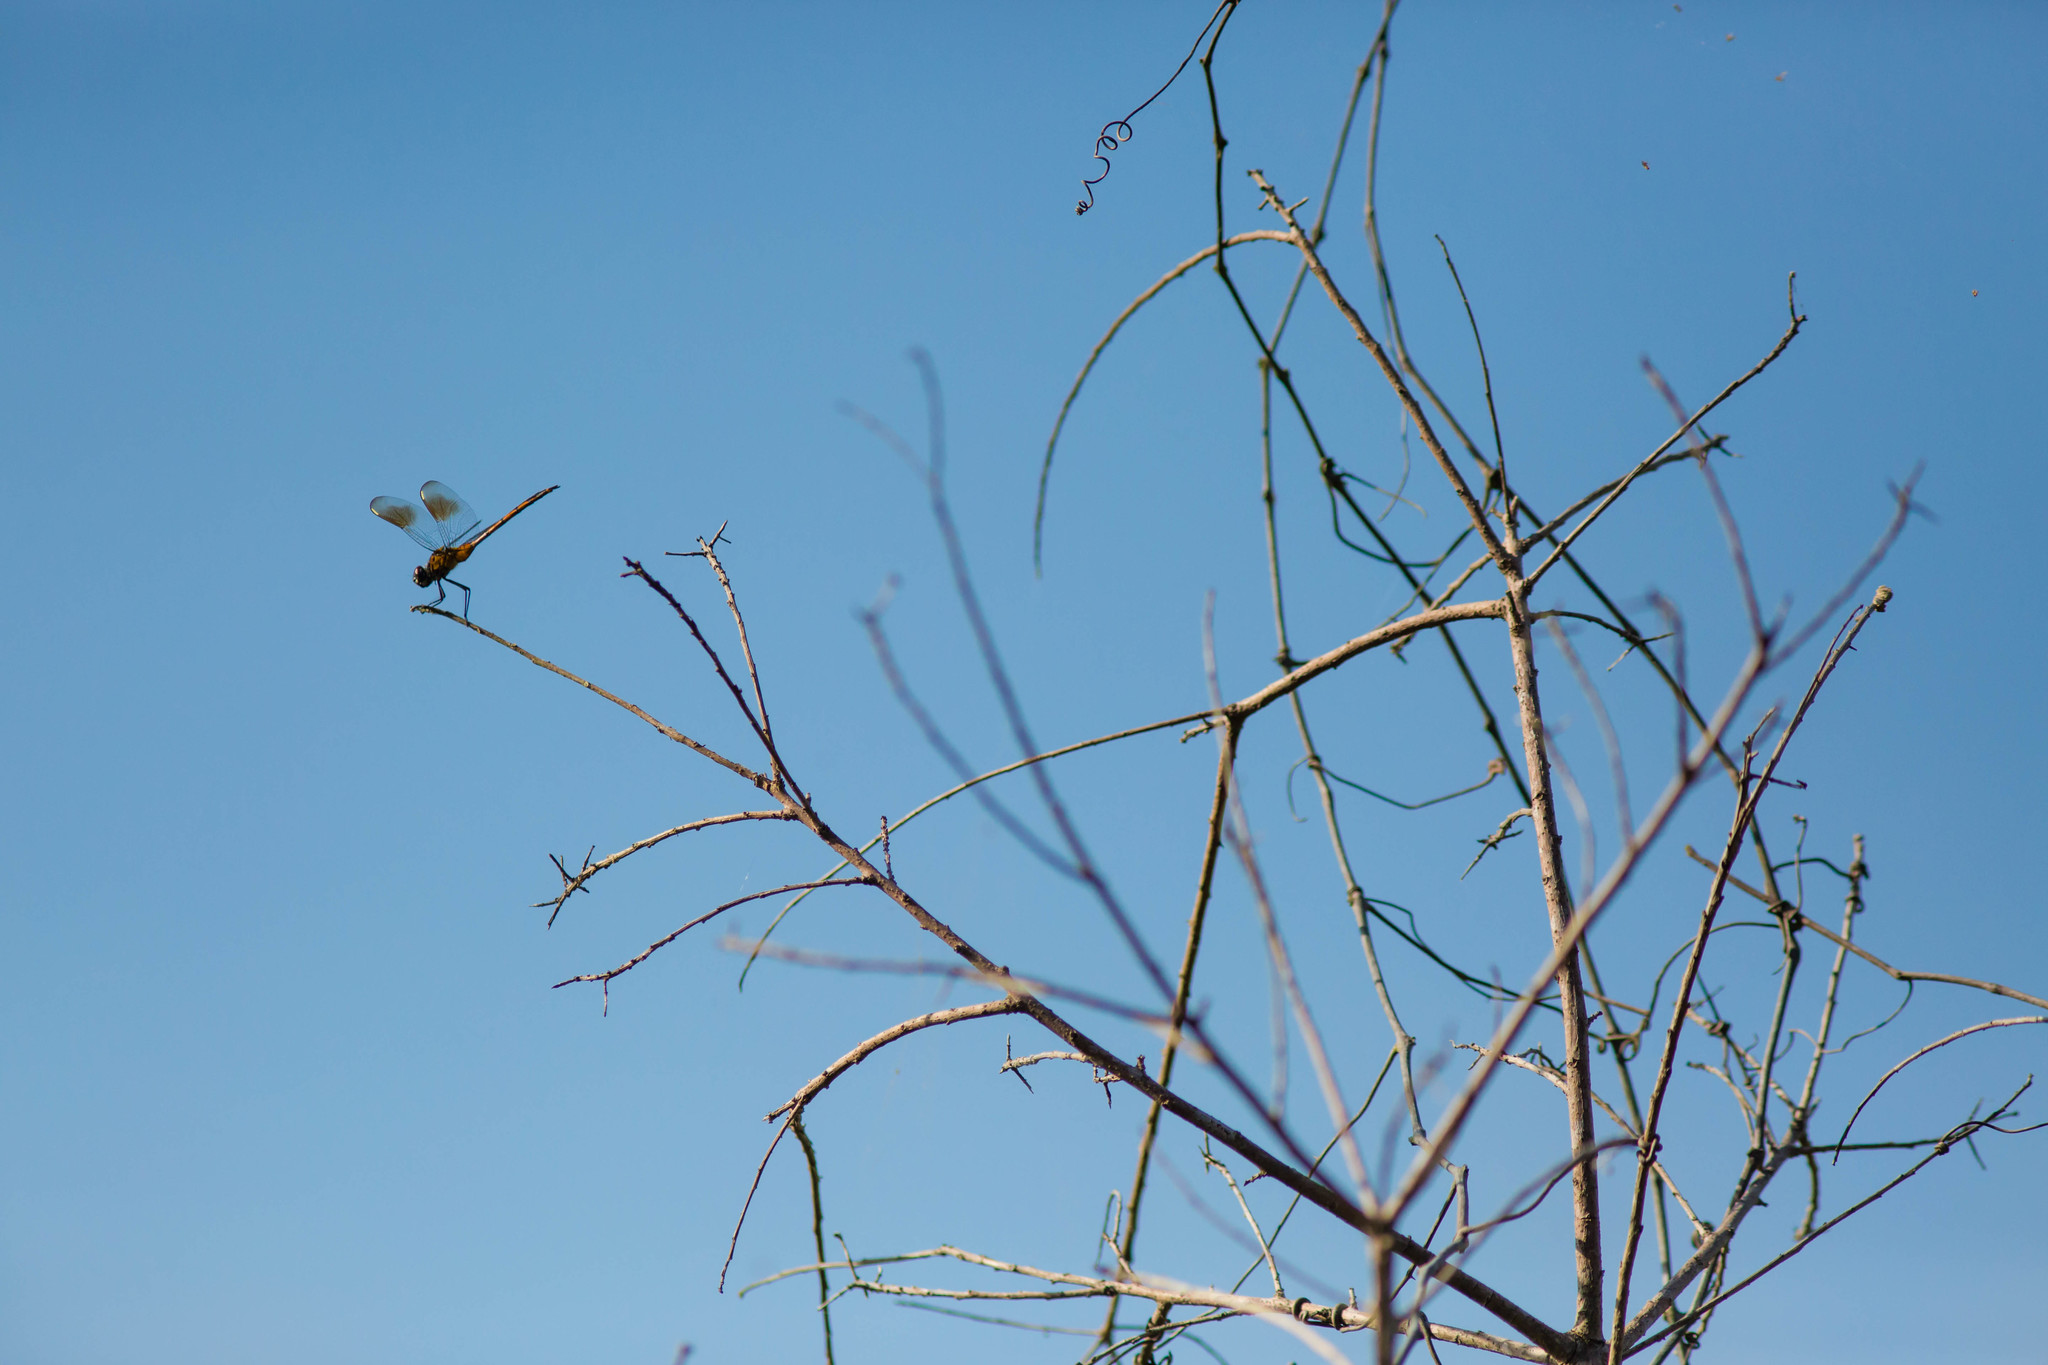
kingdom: Animalia
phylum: Arthropoda
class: Insecta
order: Odonata
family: Libellulidae
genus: Brachymesia
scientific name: Brachymesia gravida
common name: Four-spotted pennant
